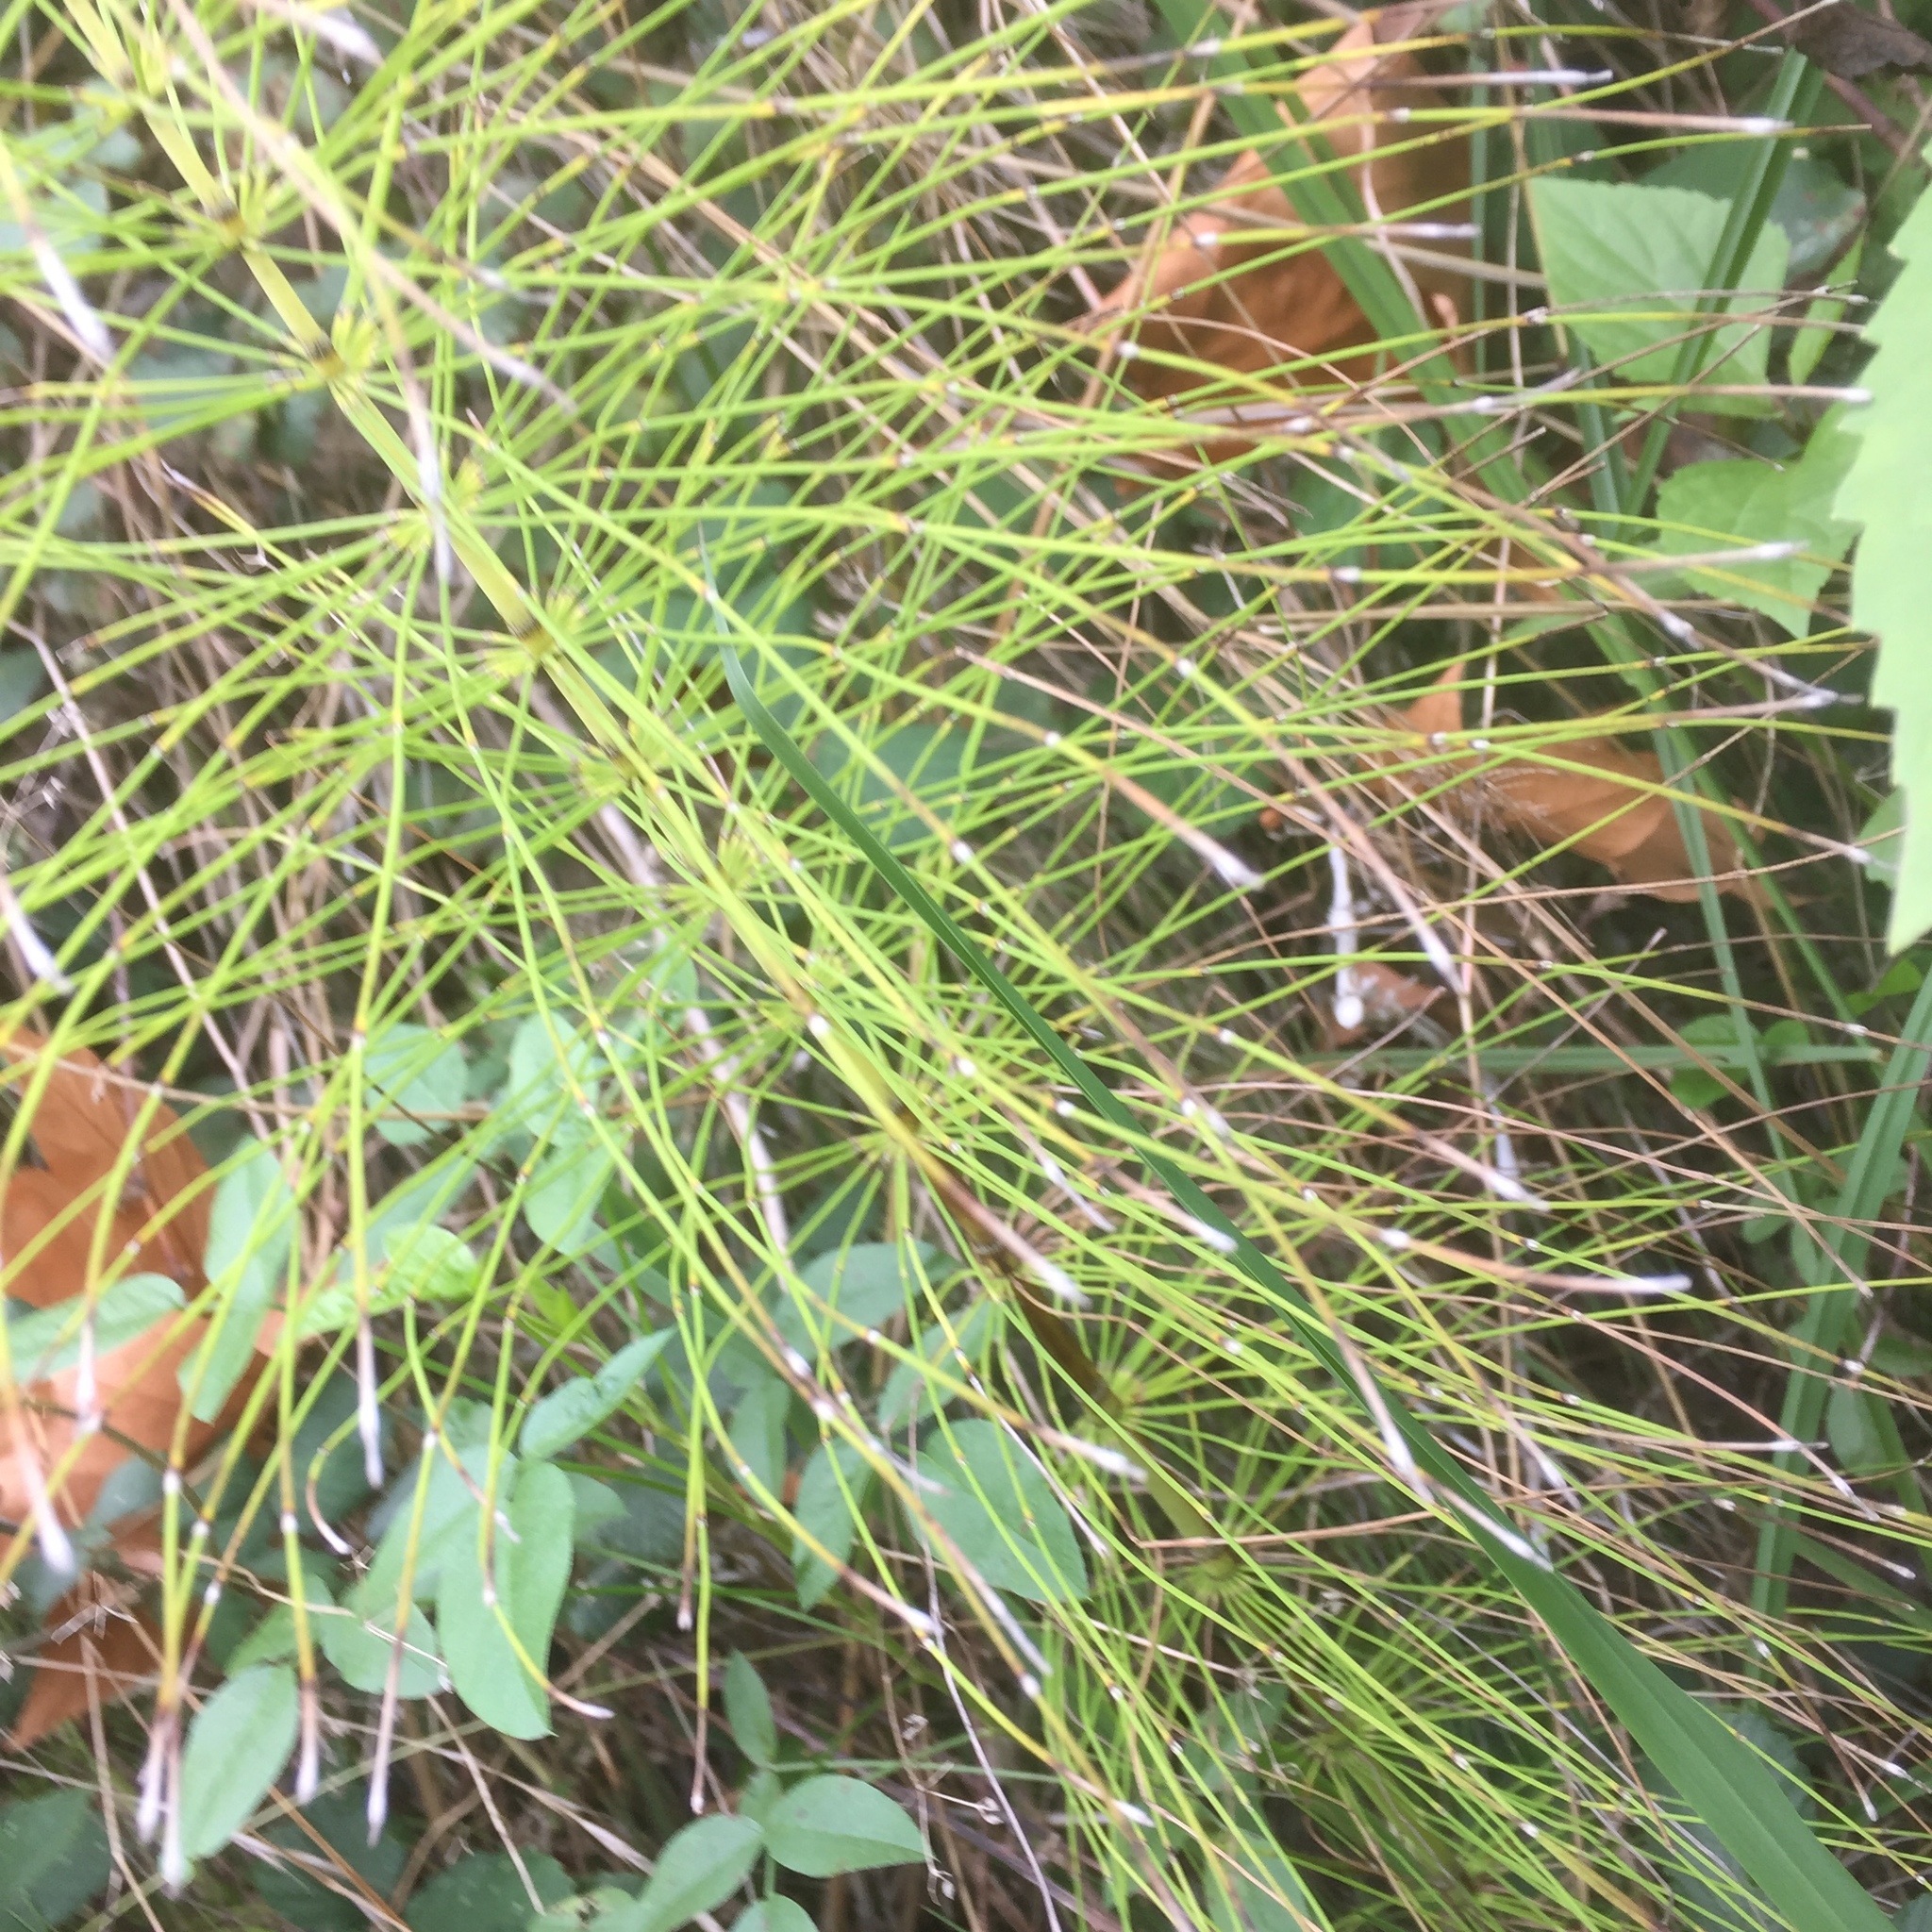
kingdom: Plantae
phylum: Tracheophyta
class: Polypodiopsida
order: Equisetales
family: Equisetaceae
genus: Equisetum
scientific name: Equisetum telmateia
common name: Great horsetail
